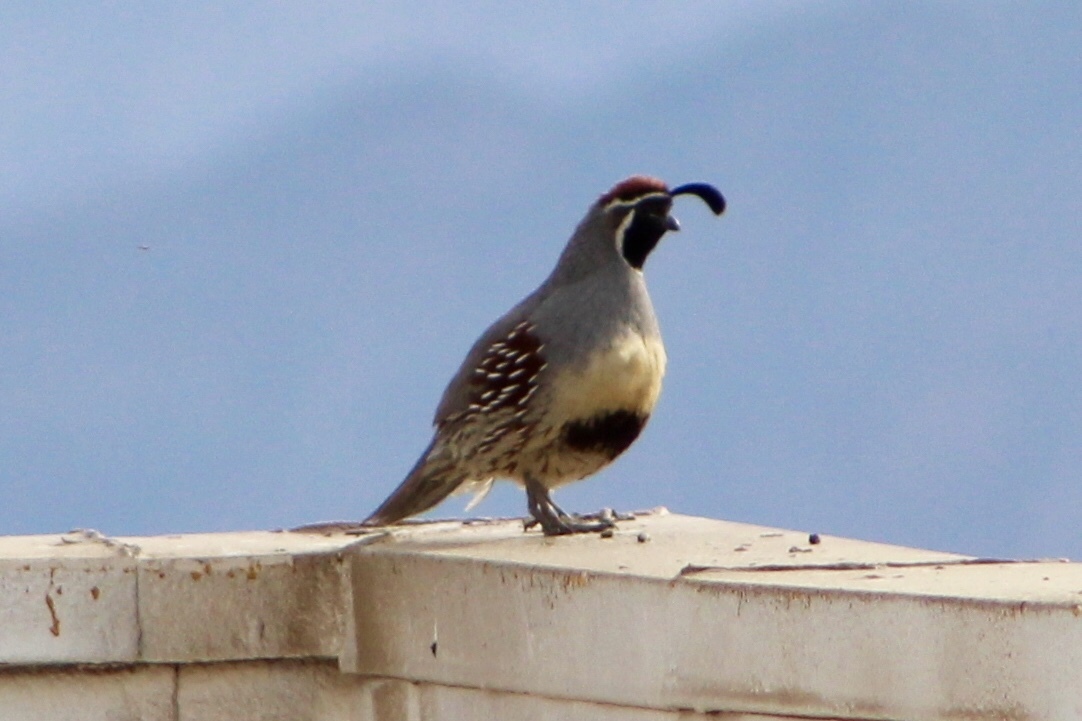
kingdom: Animalia
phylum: Chordata
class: Aves
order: Galliformes
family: Odontophoridae
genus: Callipepla
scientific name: Callipepla gambelii
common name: Gambel's quail
